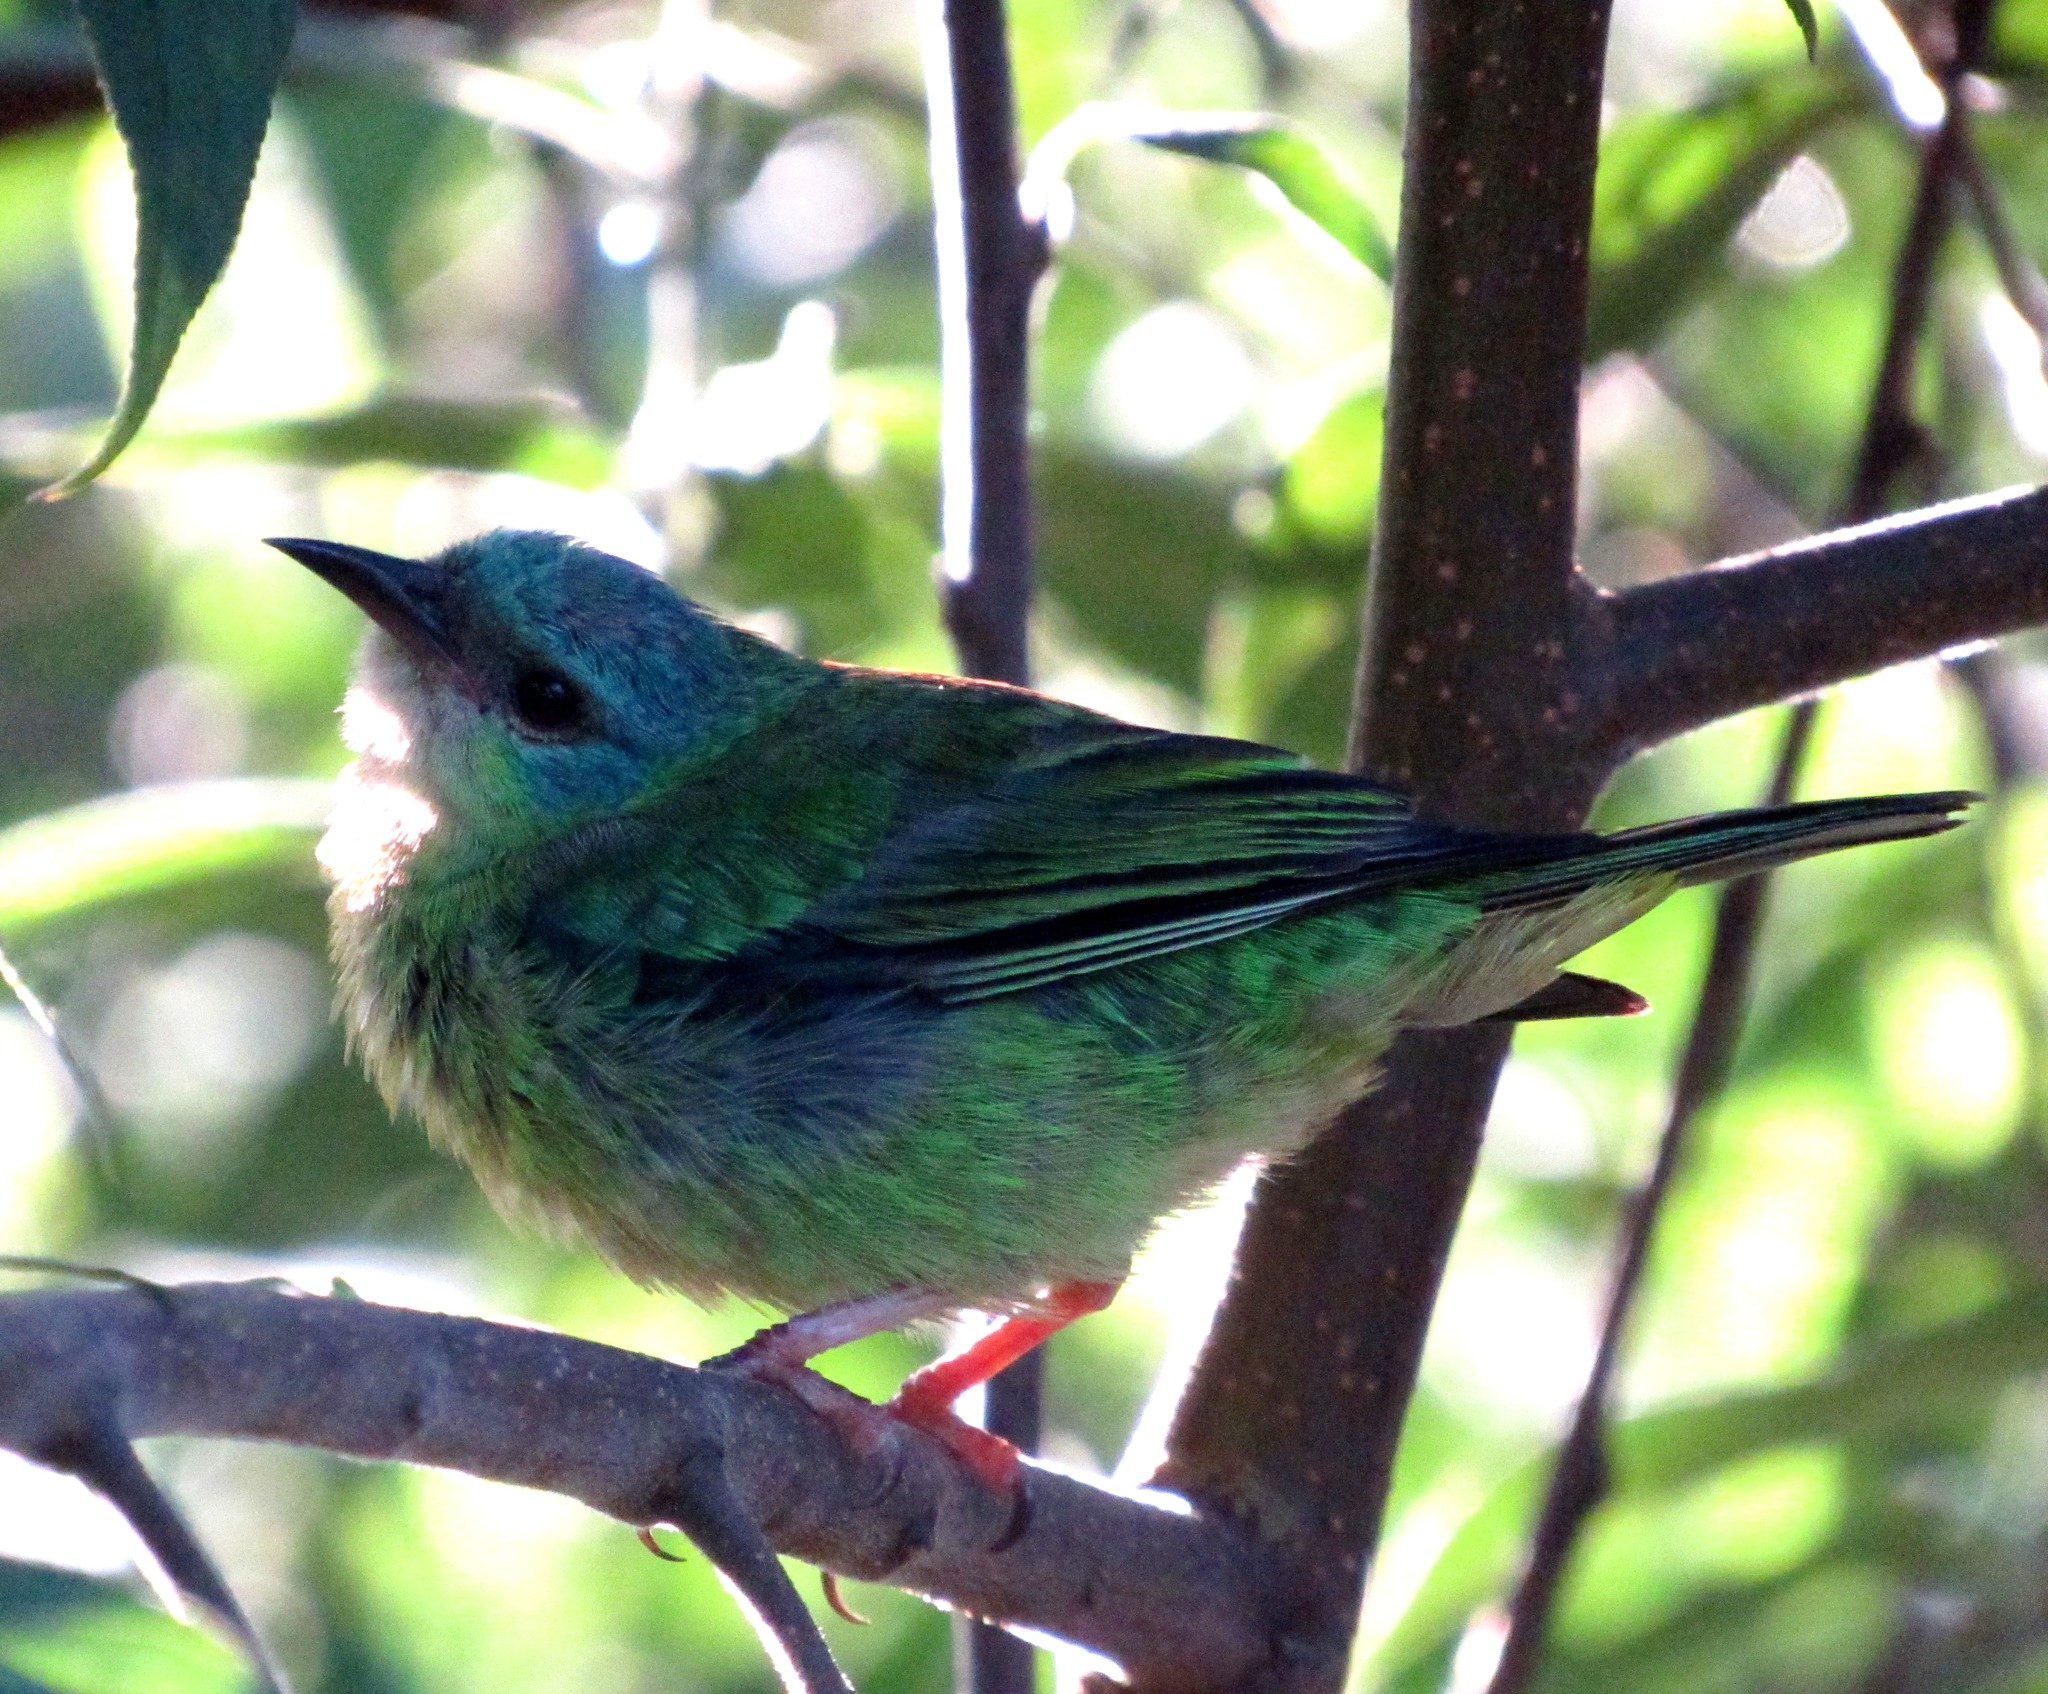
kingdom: Animalia
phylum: Chordata
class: Aves
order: Passeriformes
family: Thraupidae
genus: Dacnis
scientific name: Dacnis cayana
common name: Blue dacnis
